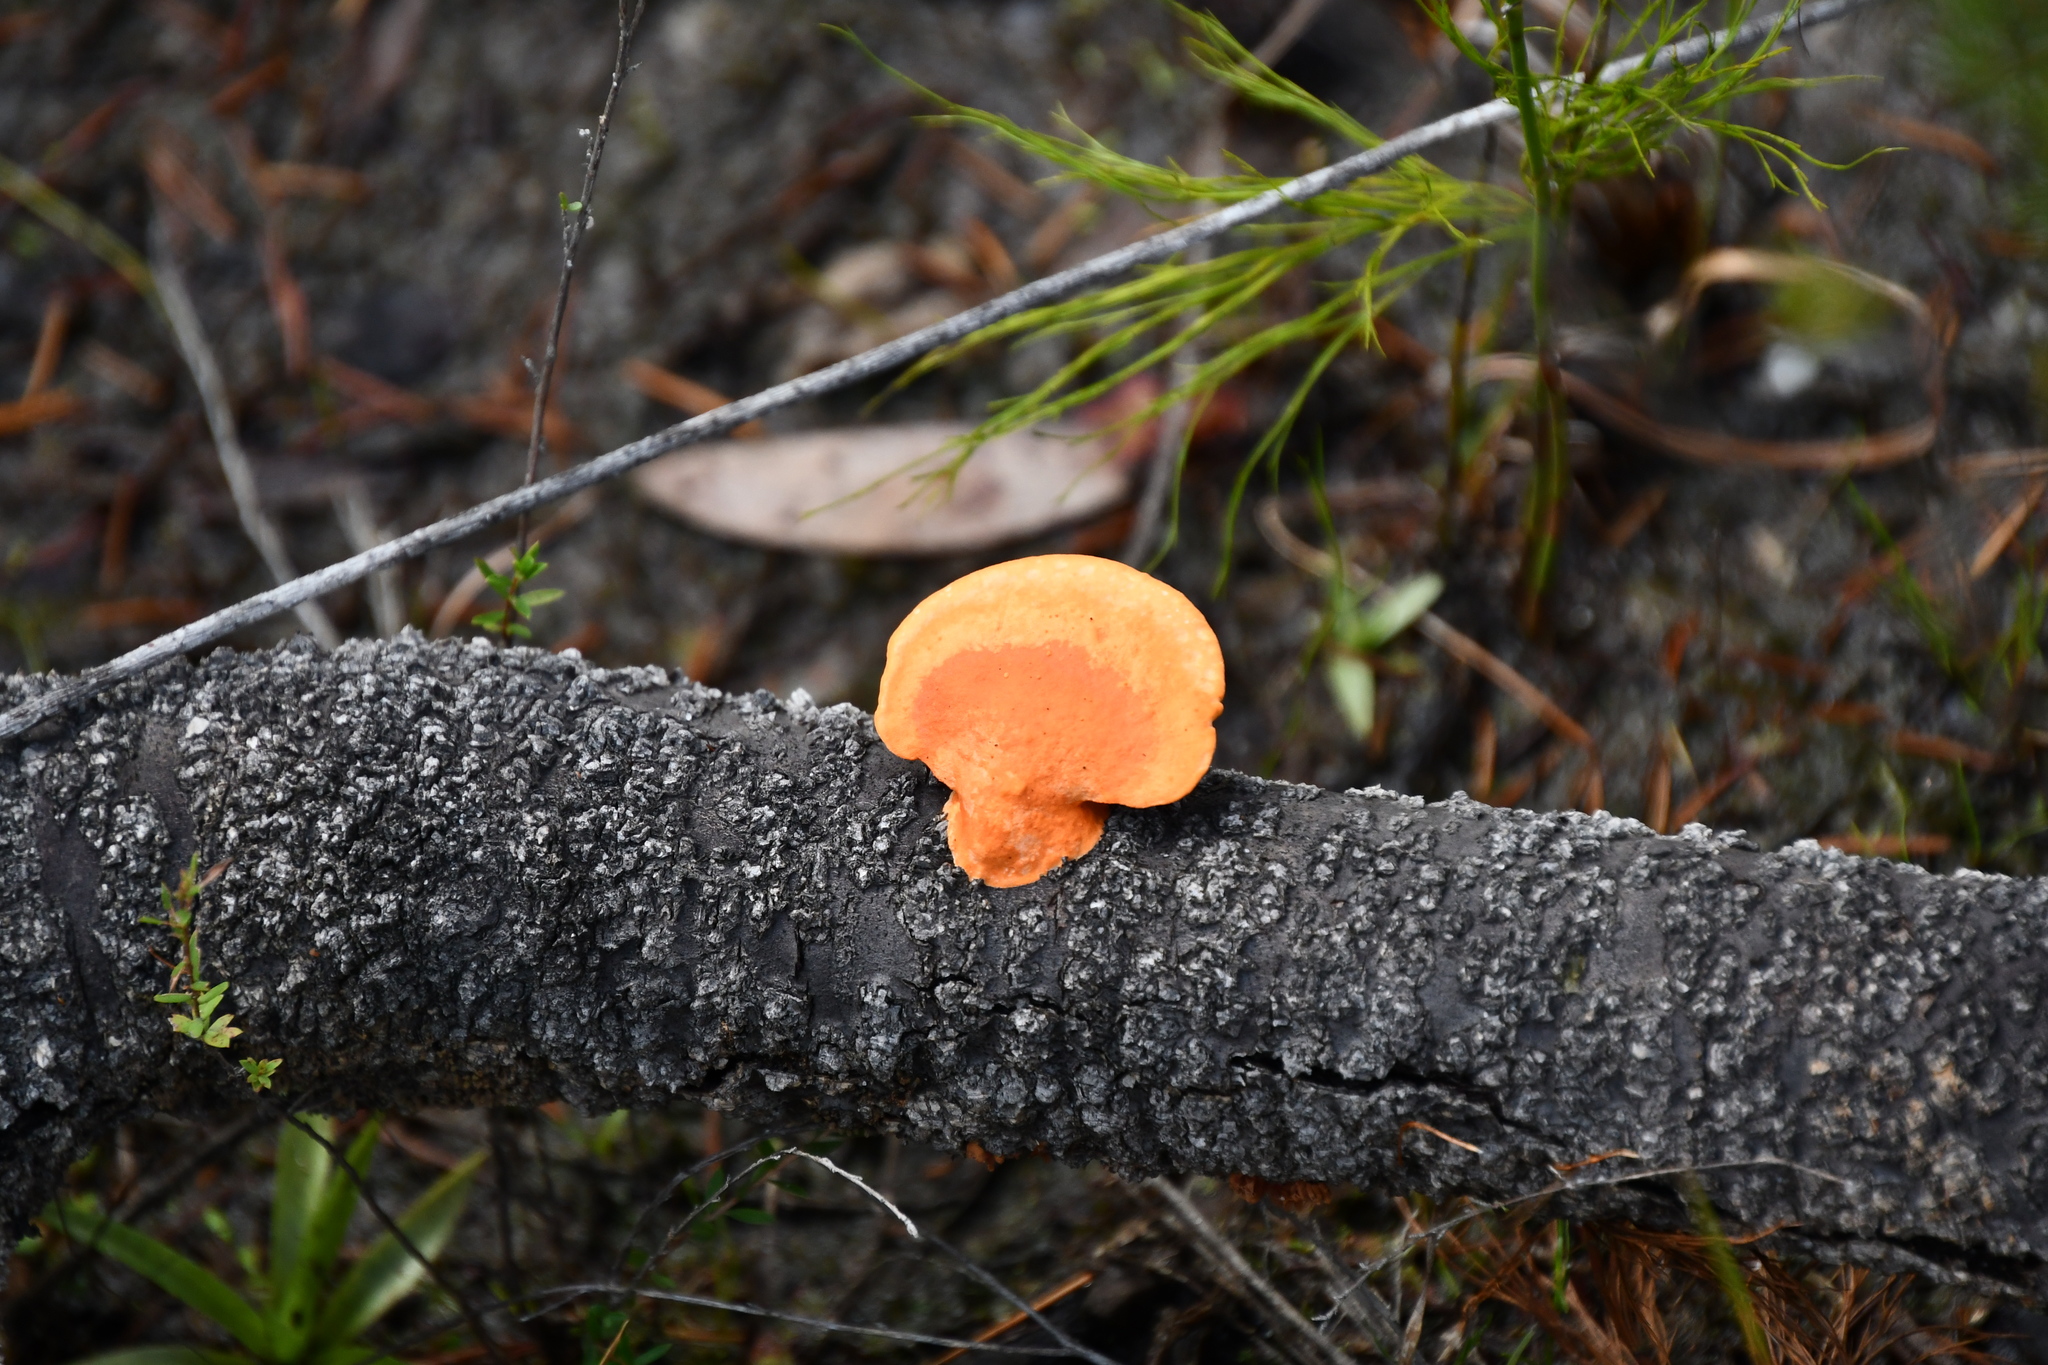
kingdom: Fungi
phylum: Basidiomycota
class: Agaricomycetes
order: Polyporales
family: Polyporaceae
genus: Trametes
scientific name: Trametes coccinea
